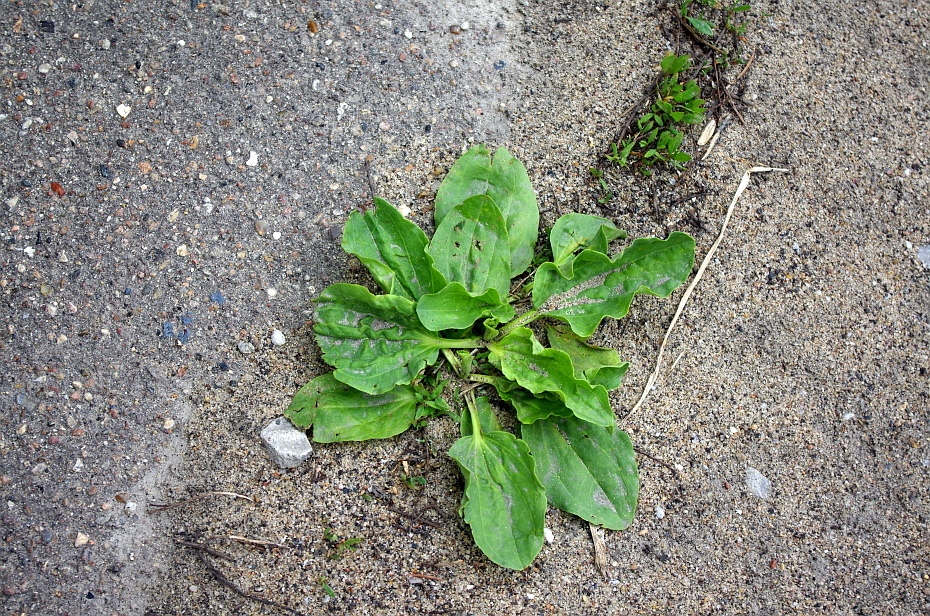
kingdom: Plantae
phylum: Tracheophyta
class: Magnoliopsida
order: Lamiales
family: Plantaginaceae
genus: Plantago
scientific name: Plantago major
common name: Common plantain
